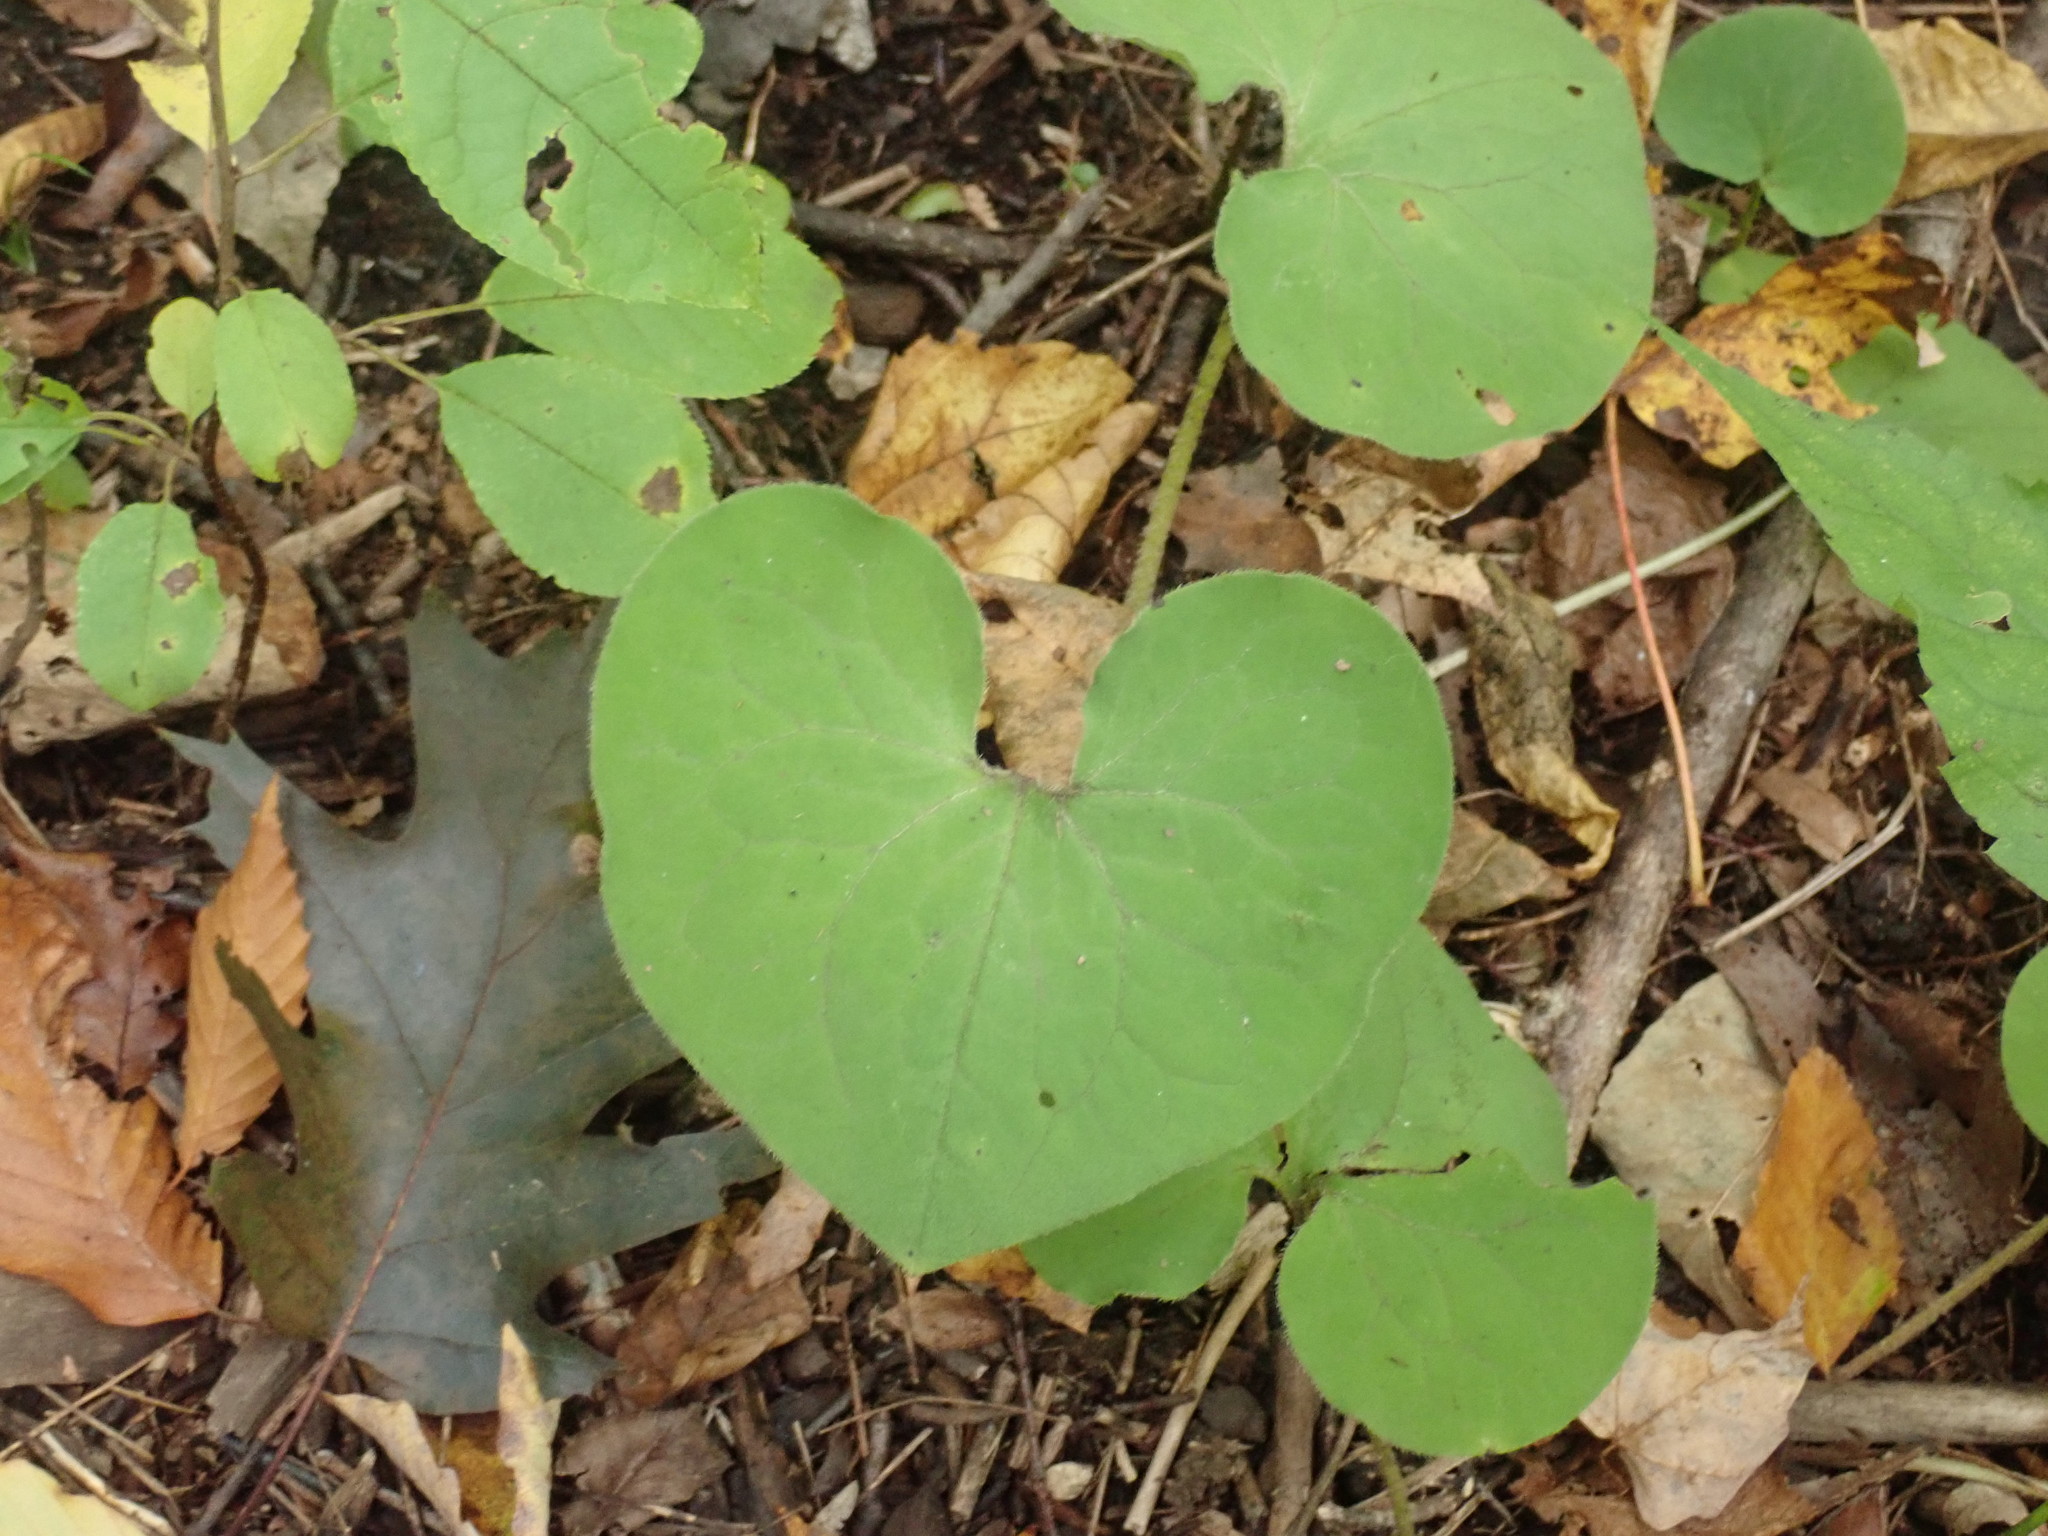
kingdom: Plantae
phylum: Tracheophyta
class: Magnoliopsida
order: Piperales
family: Aristolochiaceae
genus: Asarum
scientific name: Asarum canadense
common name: Wild ginger
